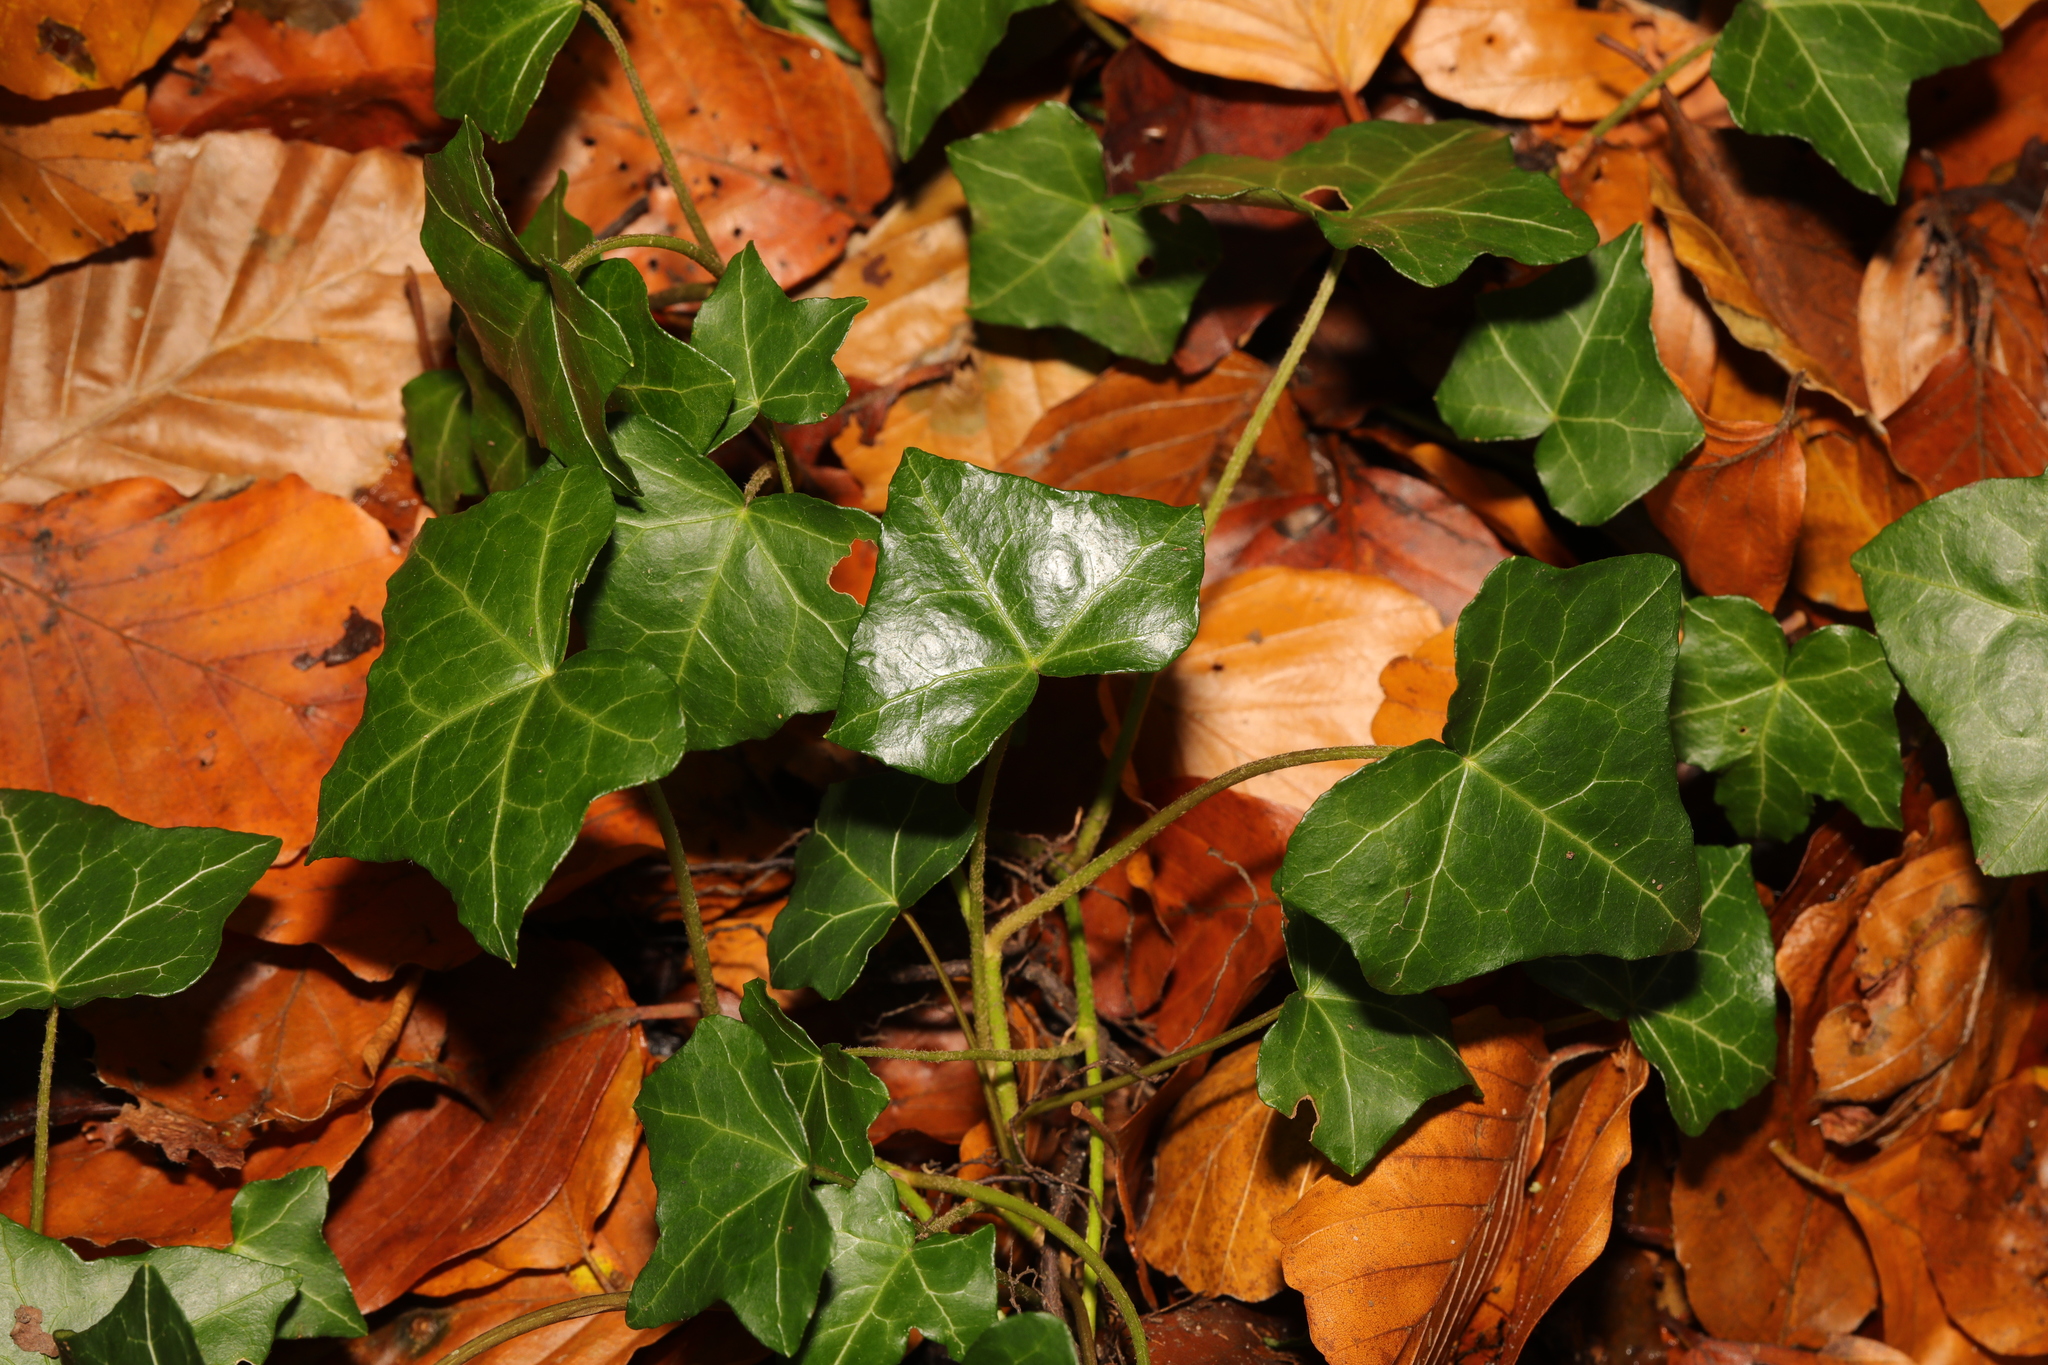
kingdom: Plantae
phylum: Tracheophyta
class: Magnoliopsida
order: Apiales
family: Araliaceae
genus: Hedera
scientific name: Hedera helix
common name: Ivy
